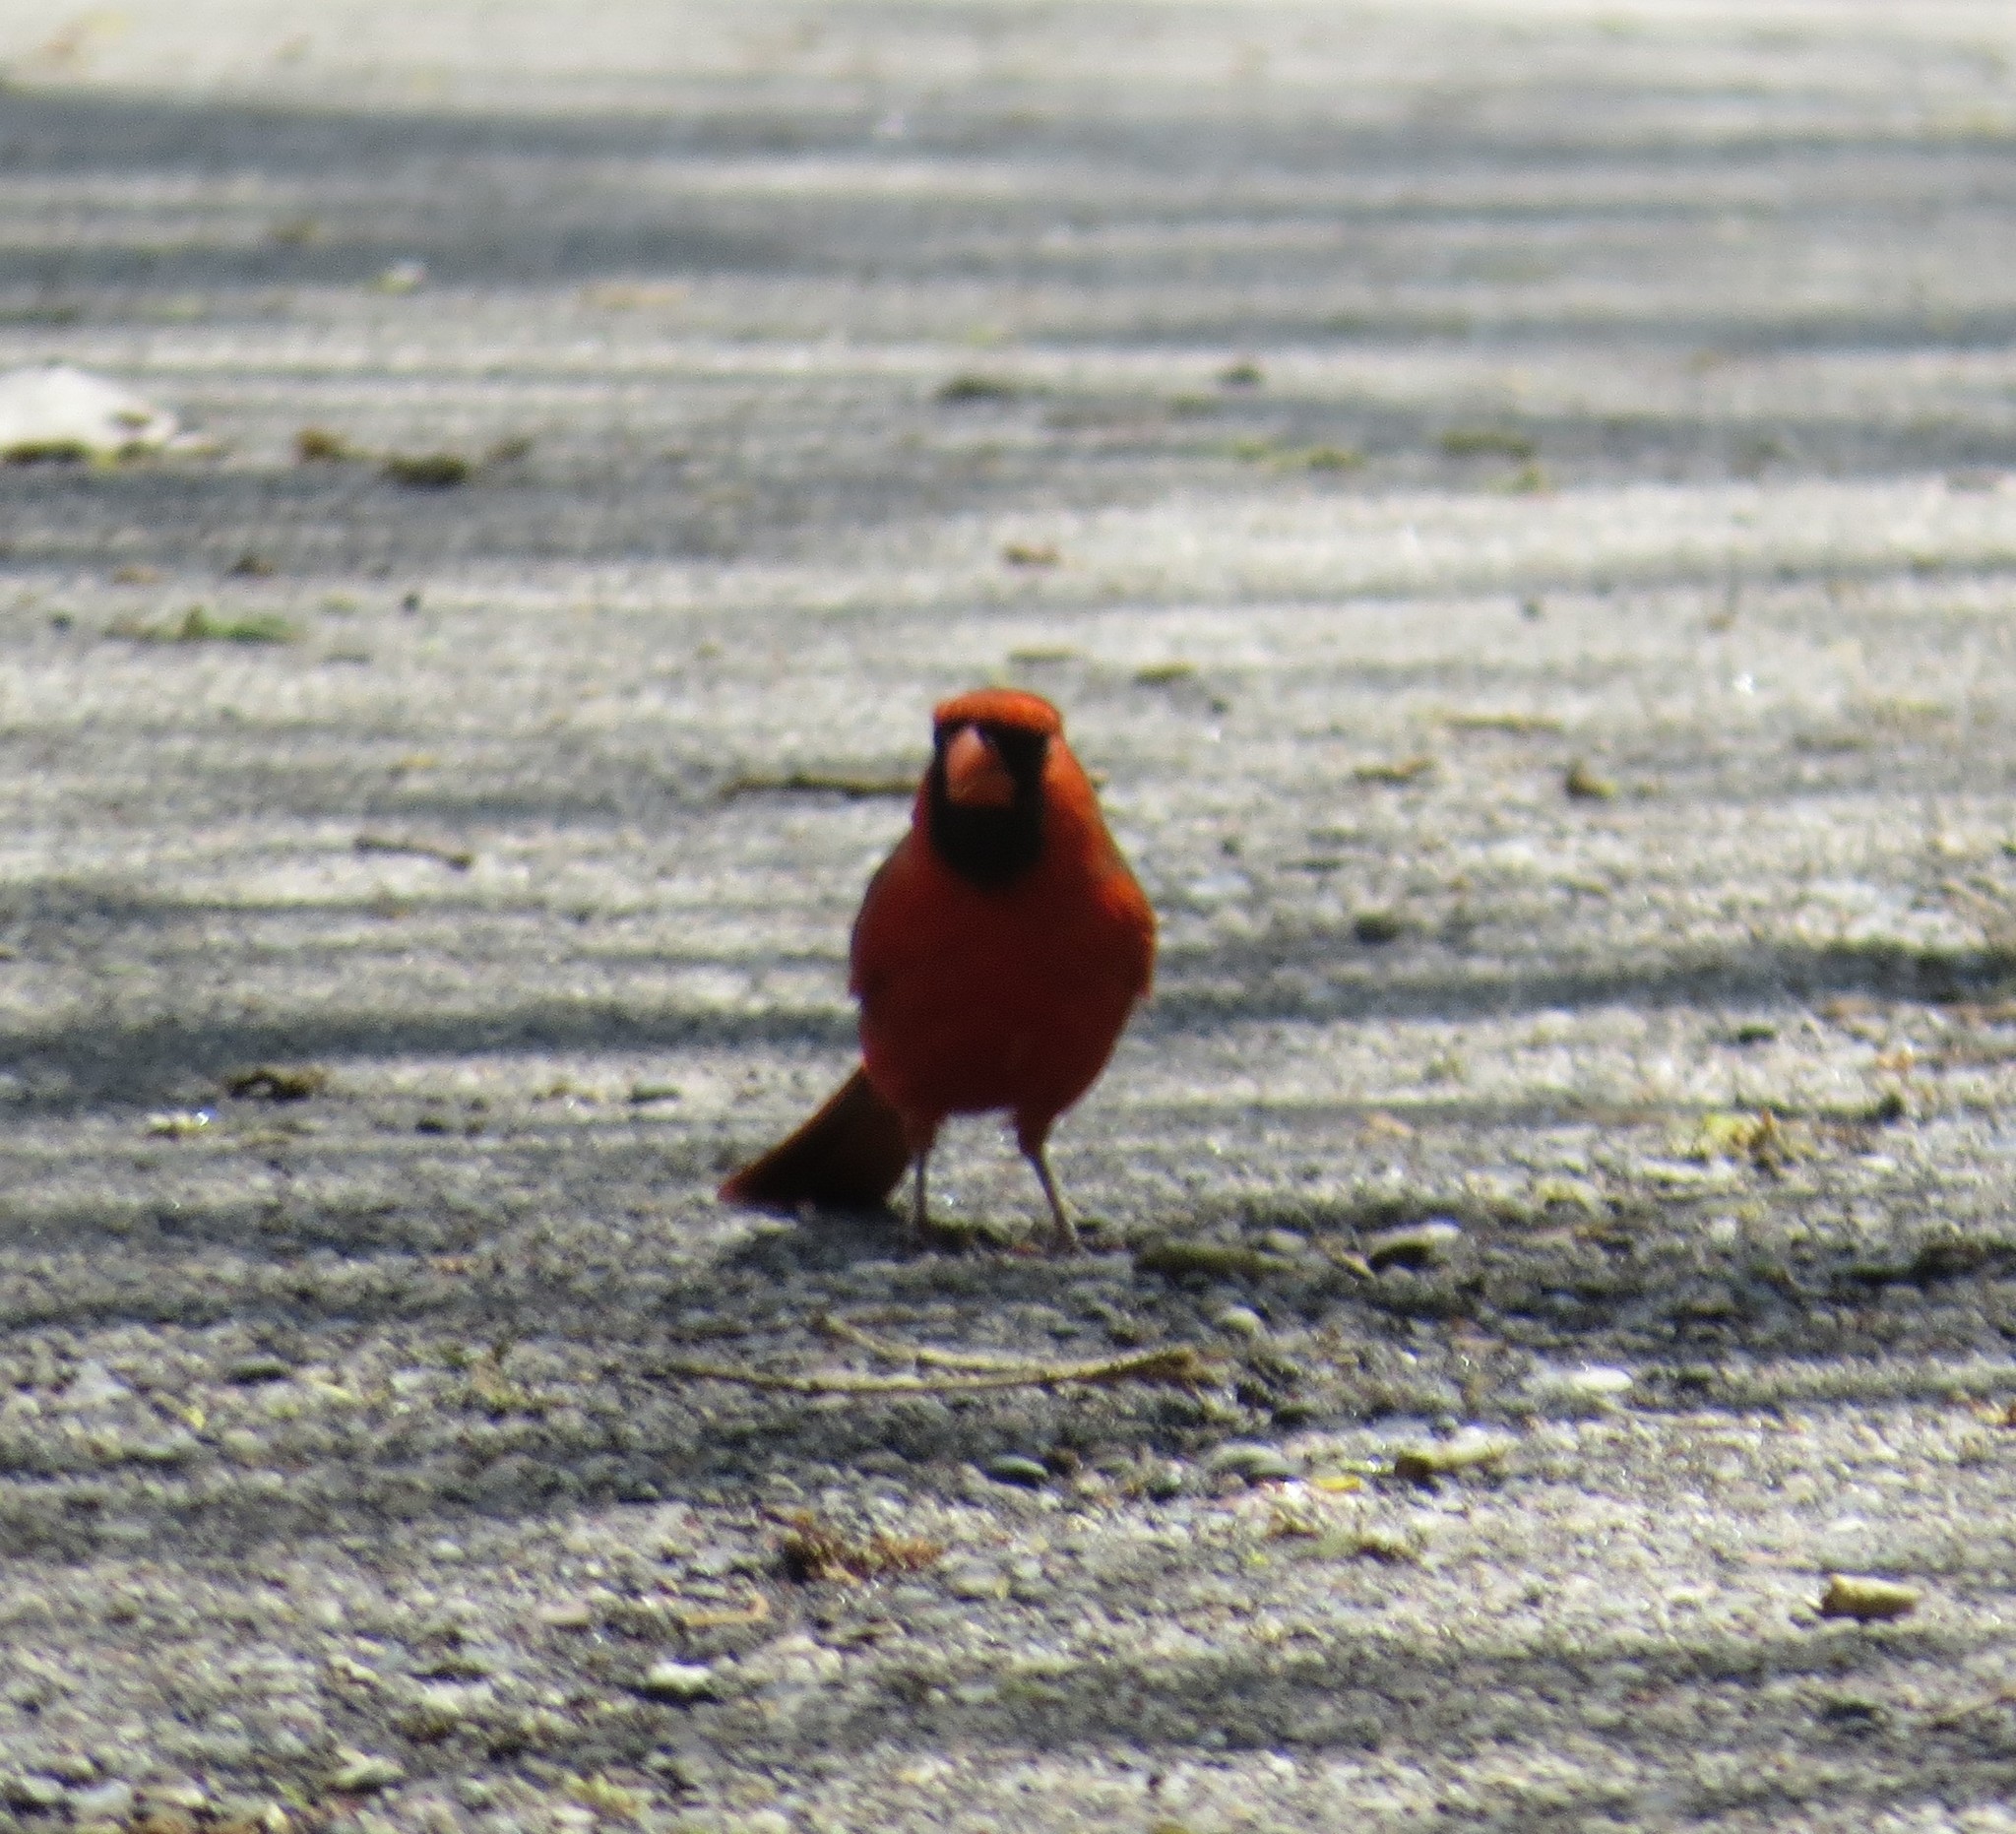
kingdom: Animalia
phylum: Chordata
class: Aves
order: Passeriformes
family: Cardinalidae
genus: Cardinalis
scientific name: Cardinalis cardinalis
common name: Northern cardinal
